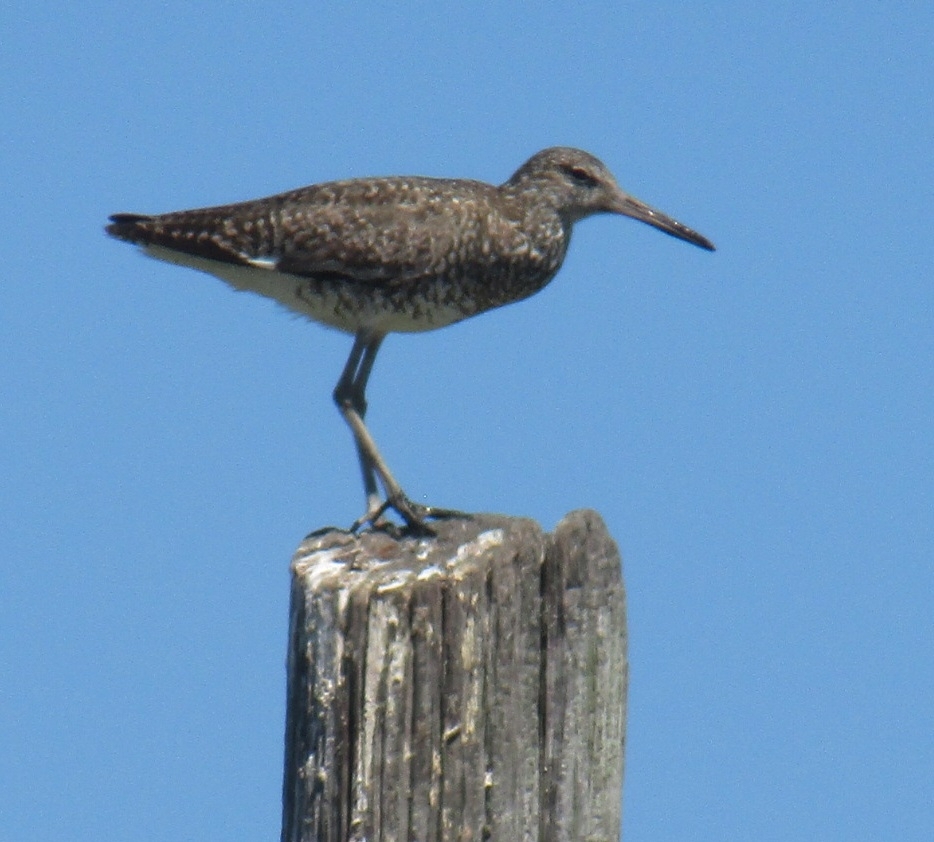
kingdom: Animalia
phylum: Chordata
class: Aves
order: Charadriiformes
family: Scolopacidae
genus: Tringa
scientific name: Tringa semipalmata
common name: Willet
